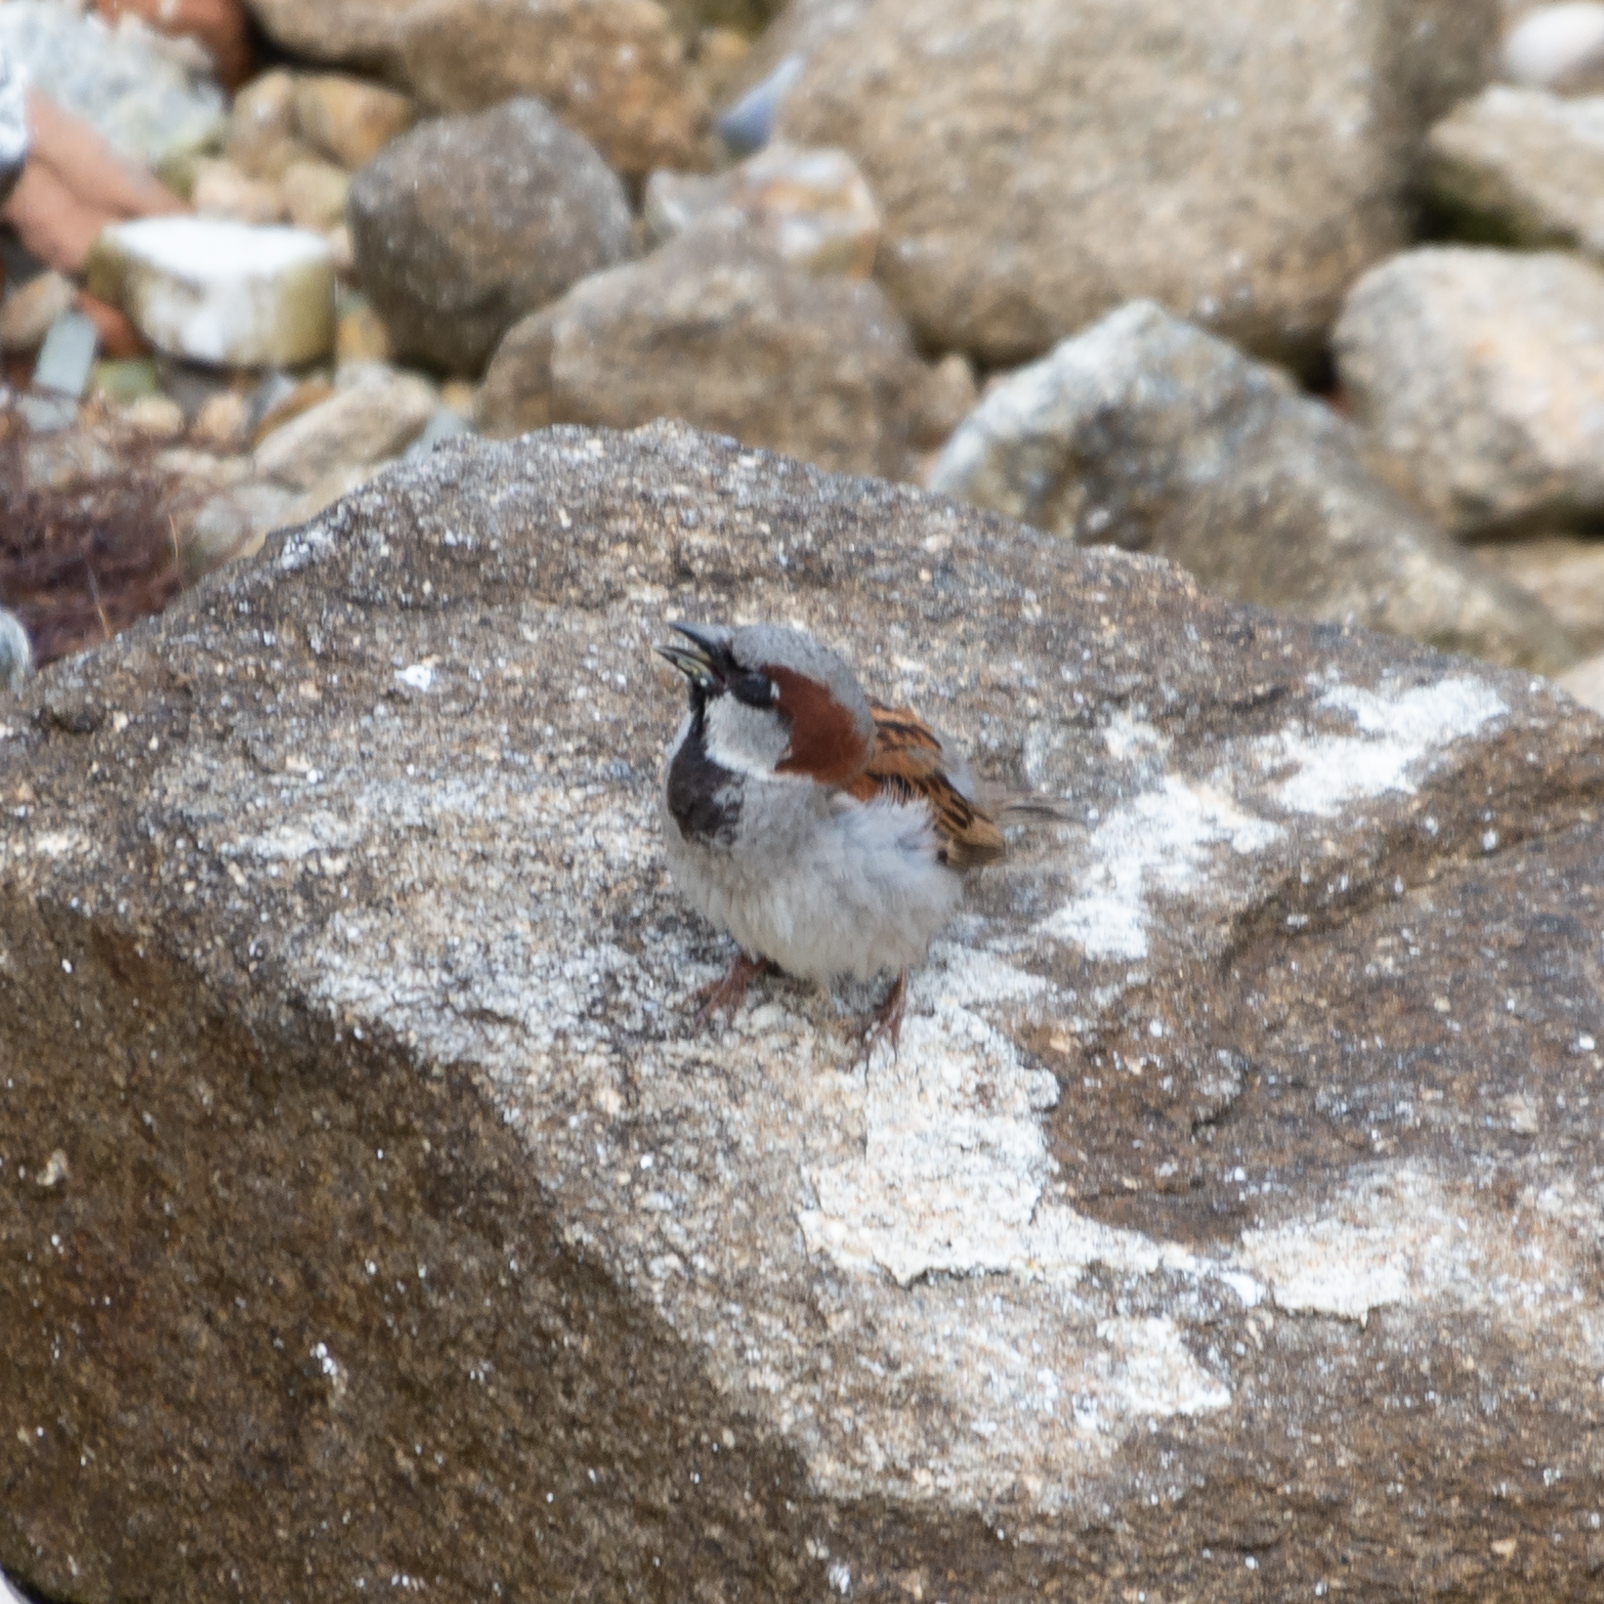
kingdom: Animalia
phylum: Chordata
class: Aves
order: Passeriformes
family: Passeridae
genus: Passer
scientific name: Passer domesticus
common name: House sparrow
